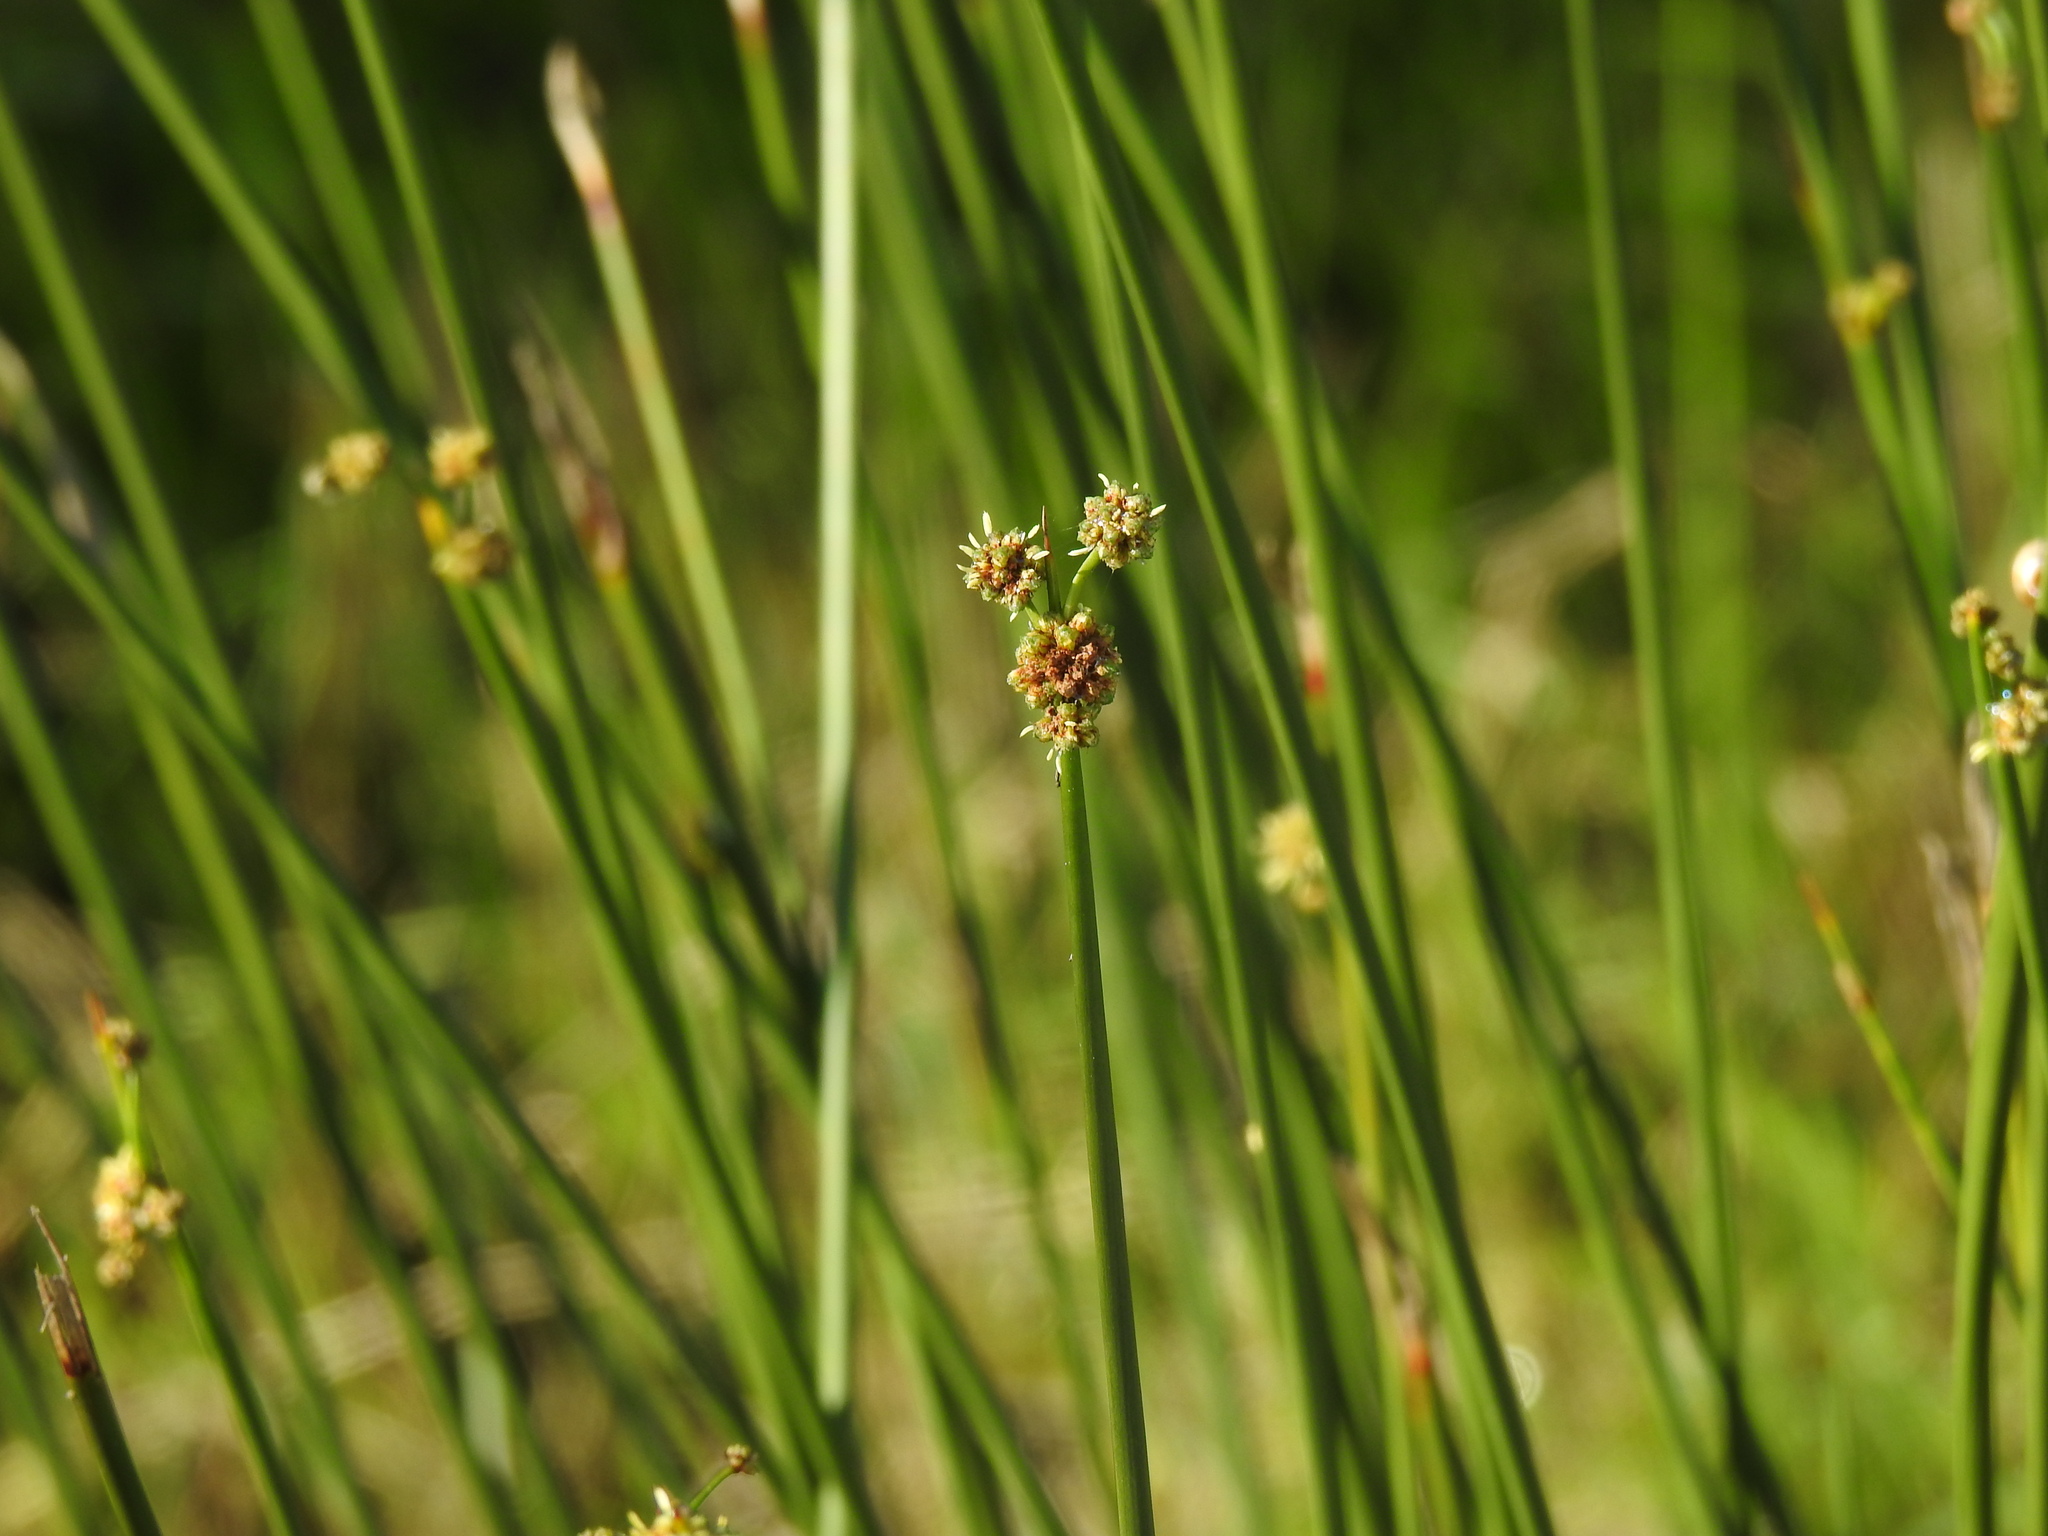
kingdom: Plantae
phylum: Tracheophyta
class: Liliopsida
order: Poales
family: Cyperaceae
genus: Scirpoides
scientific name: Scirpoides holoschoenus
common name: Round-headed club-rush
